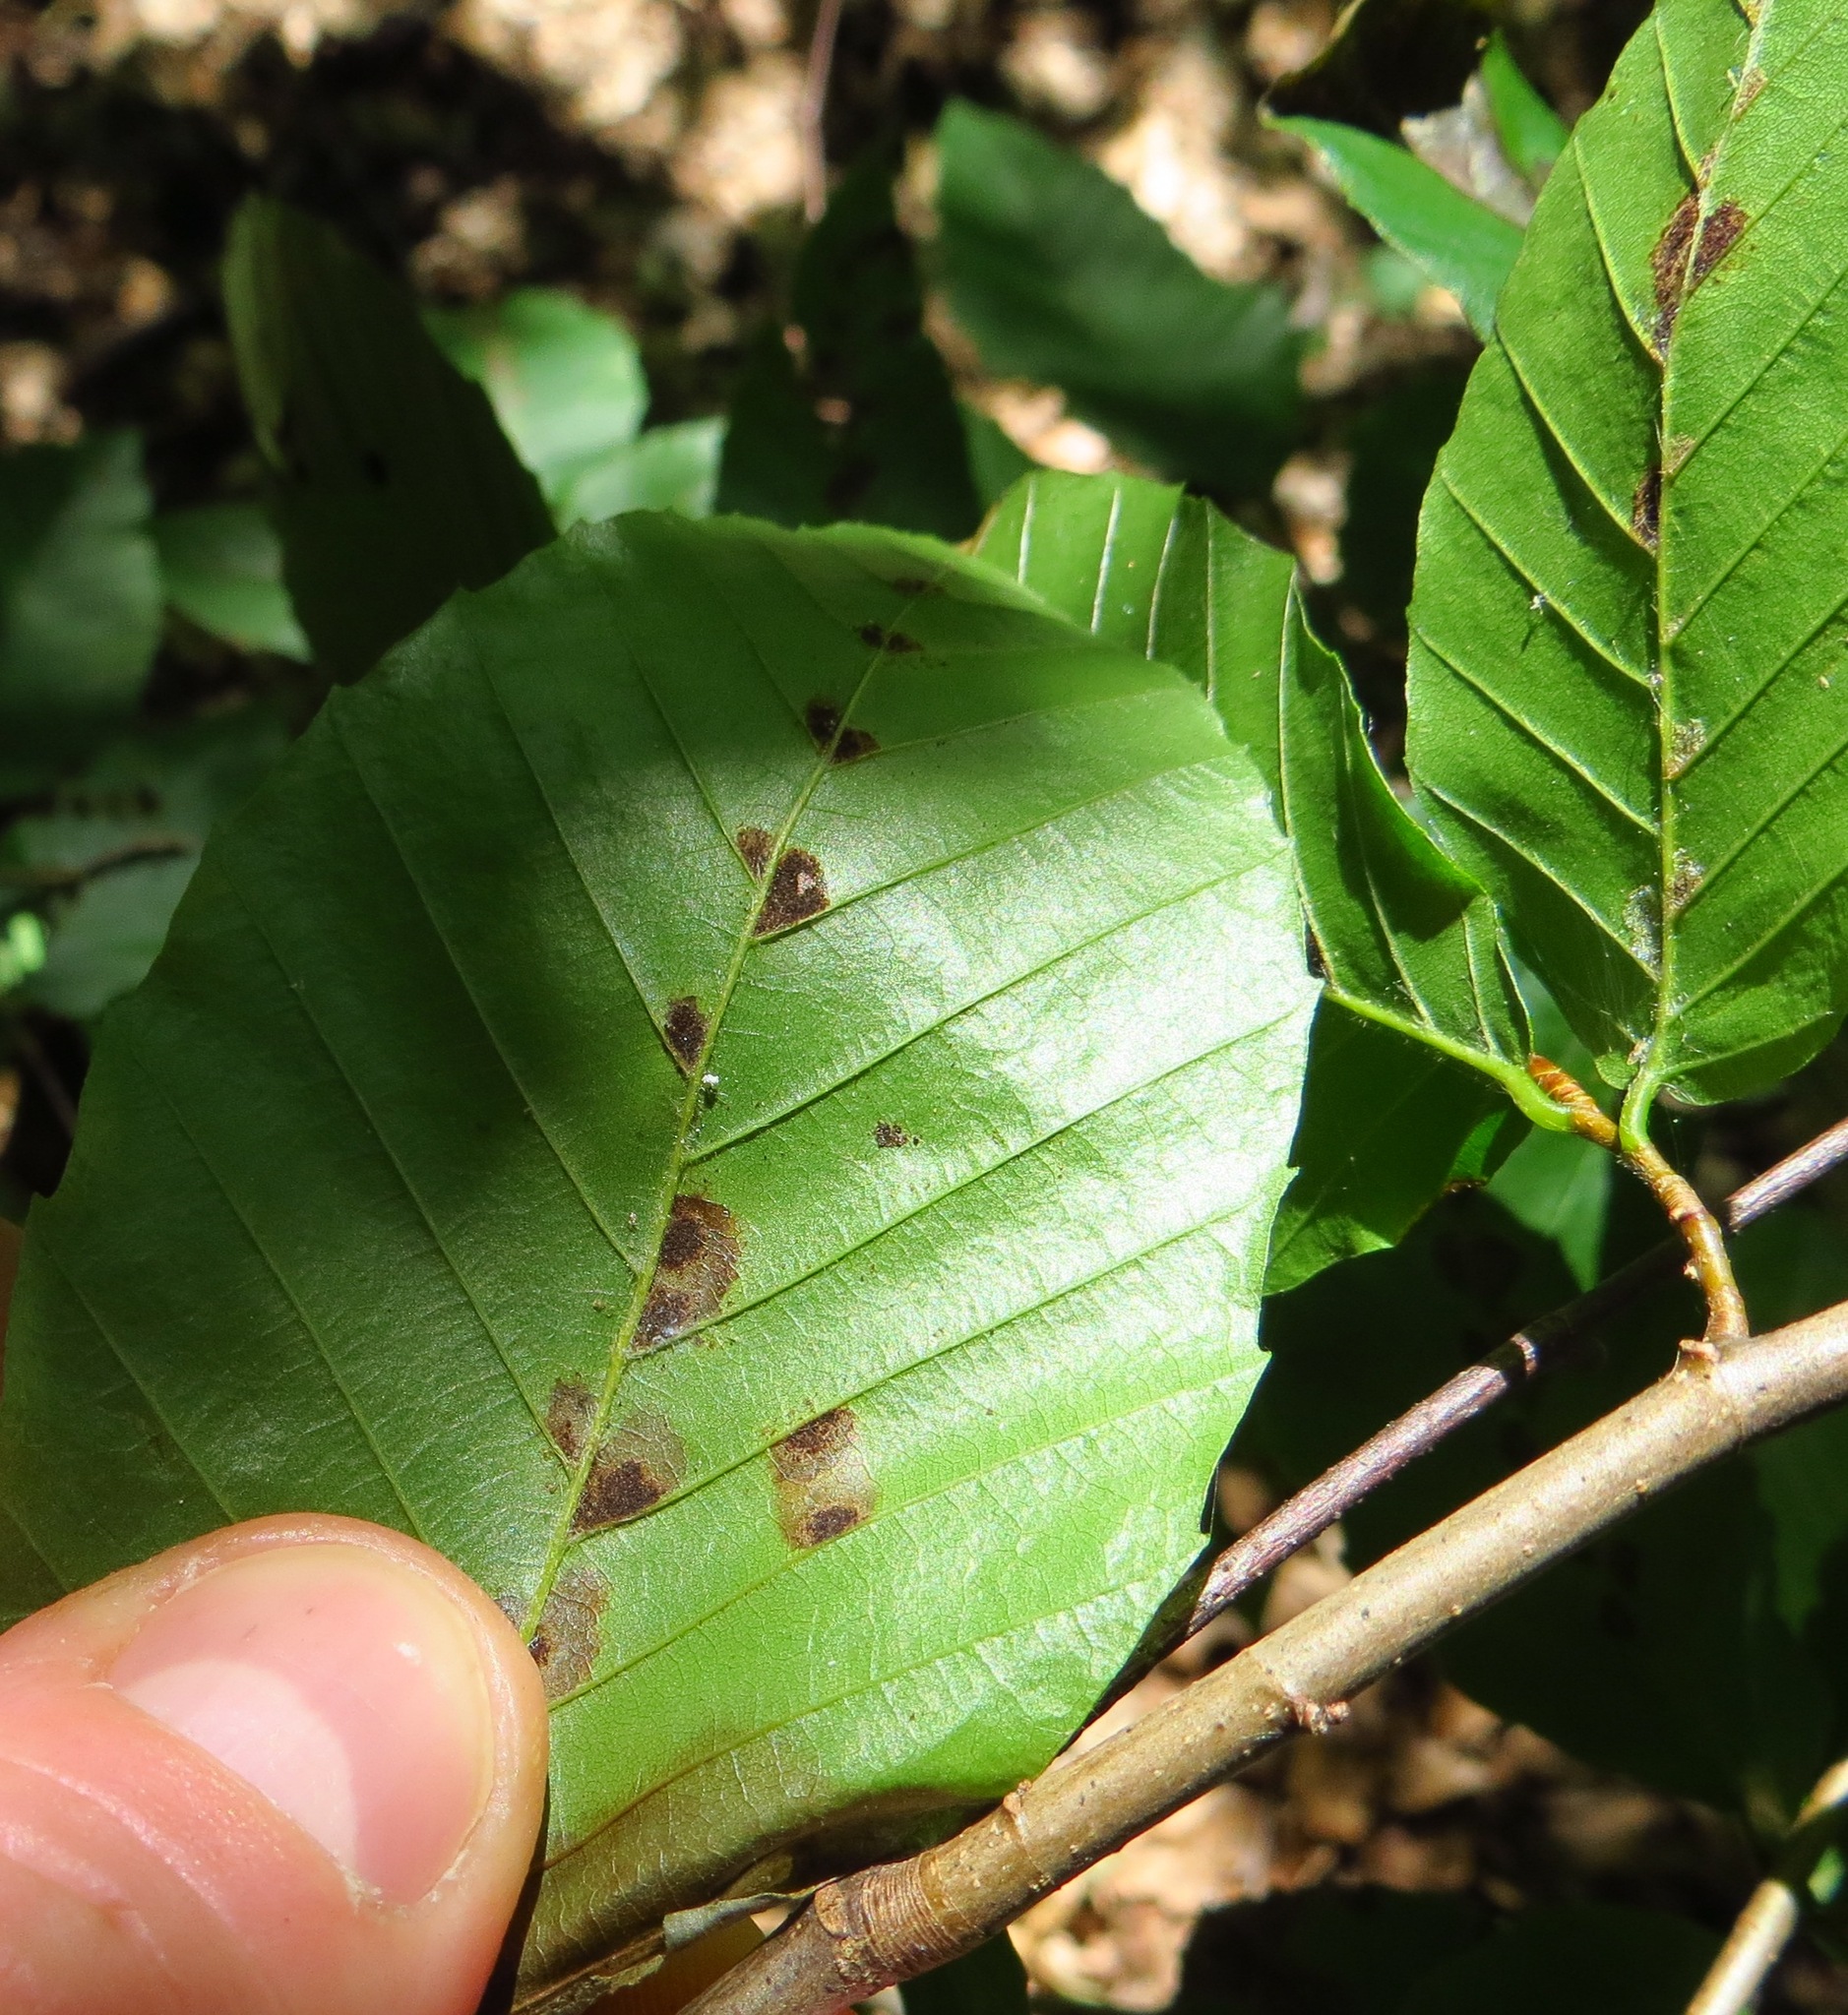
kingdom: Animalia
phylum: Arthropoda
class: Arachnida
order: Trombidiformes
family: Eriophyidae
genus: Acalitus
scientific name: Acalitus
